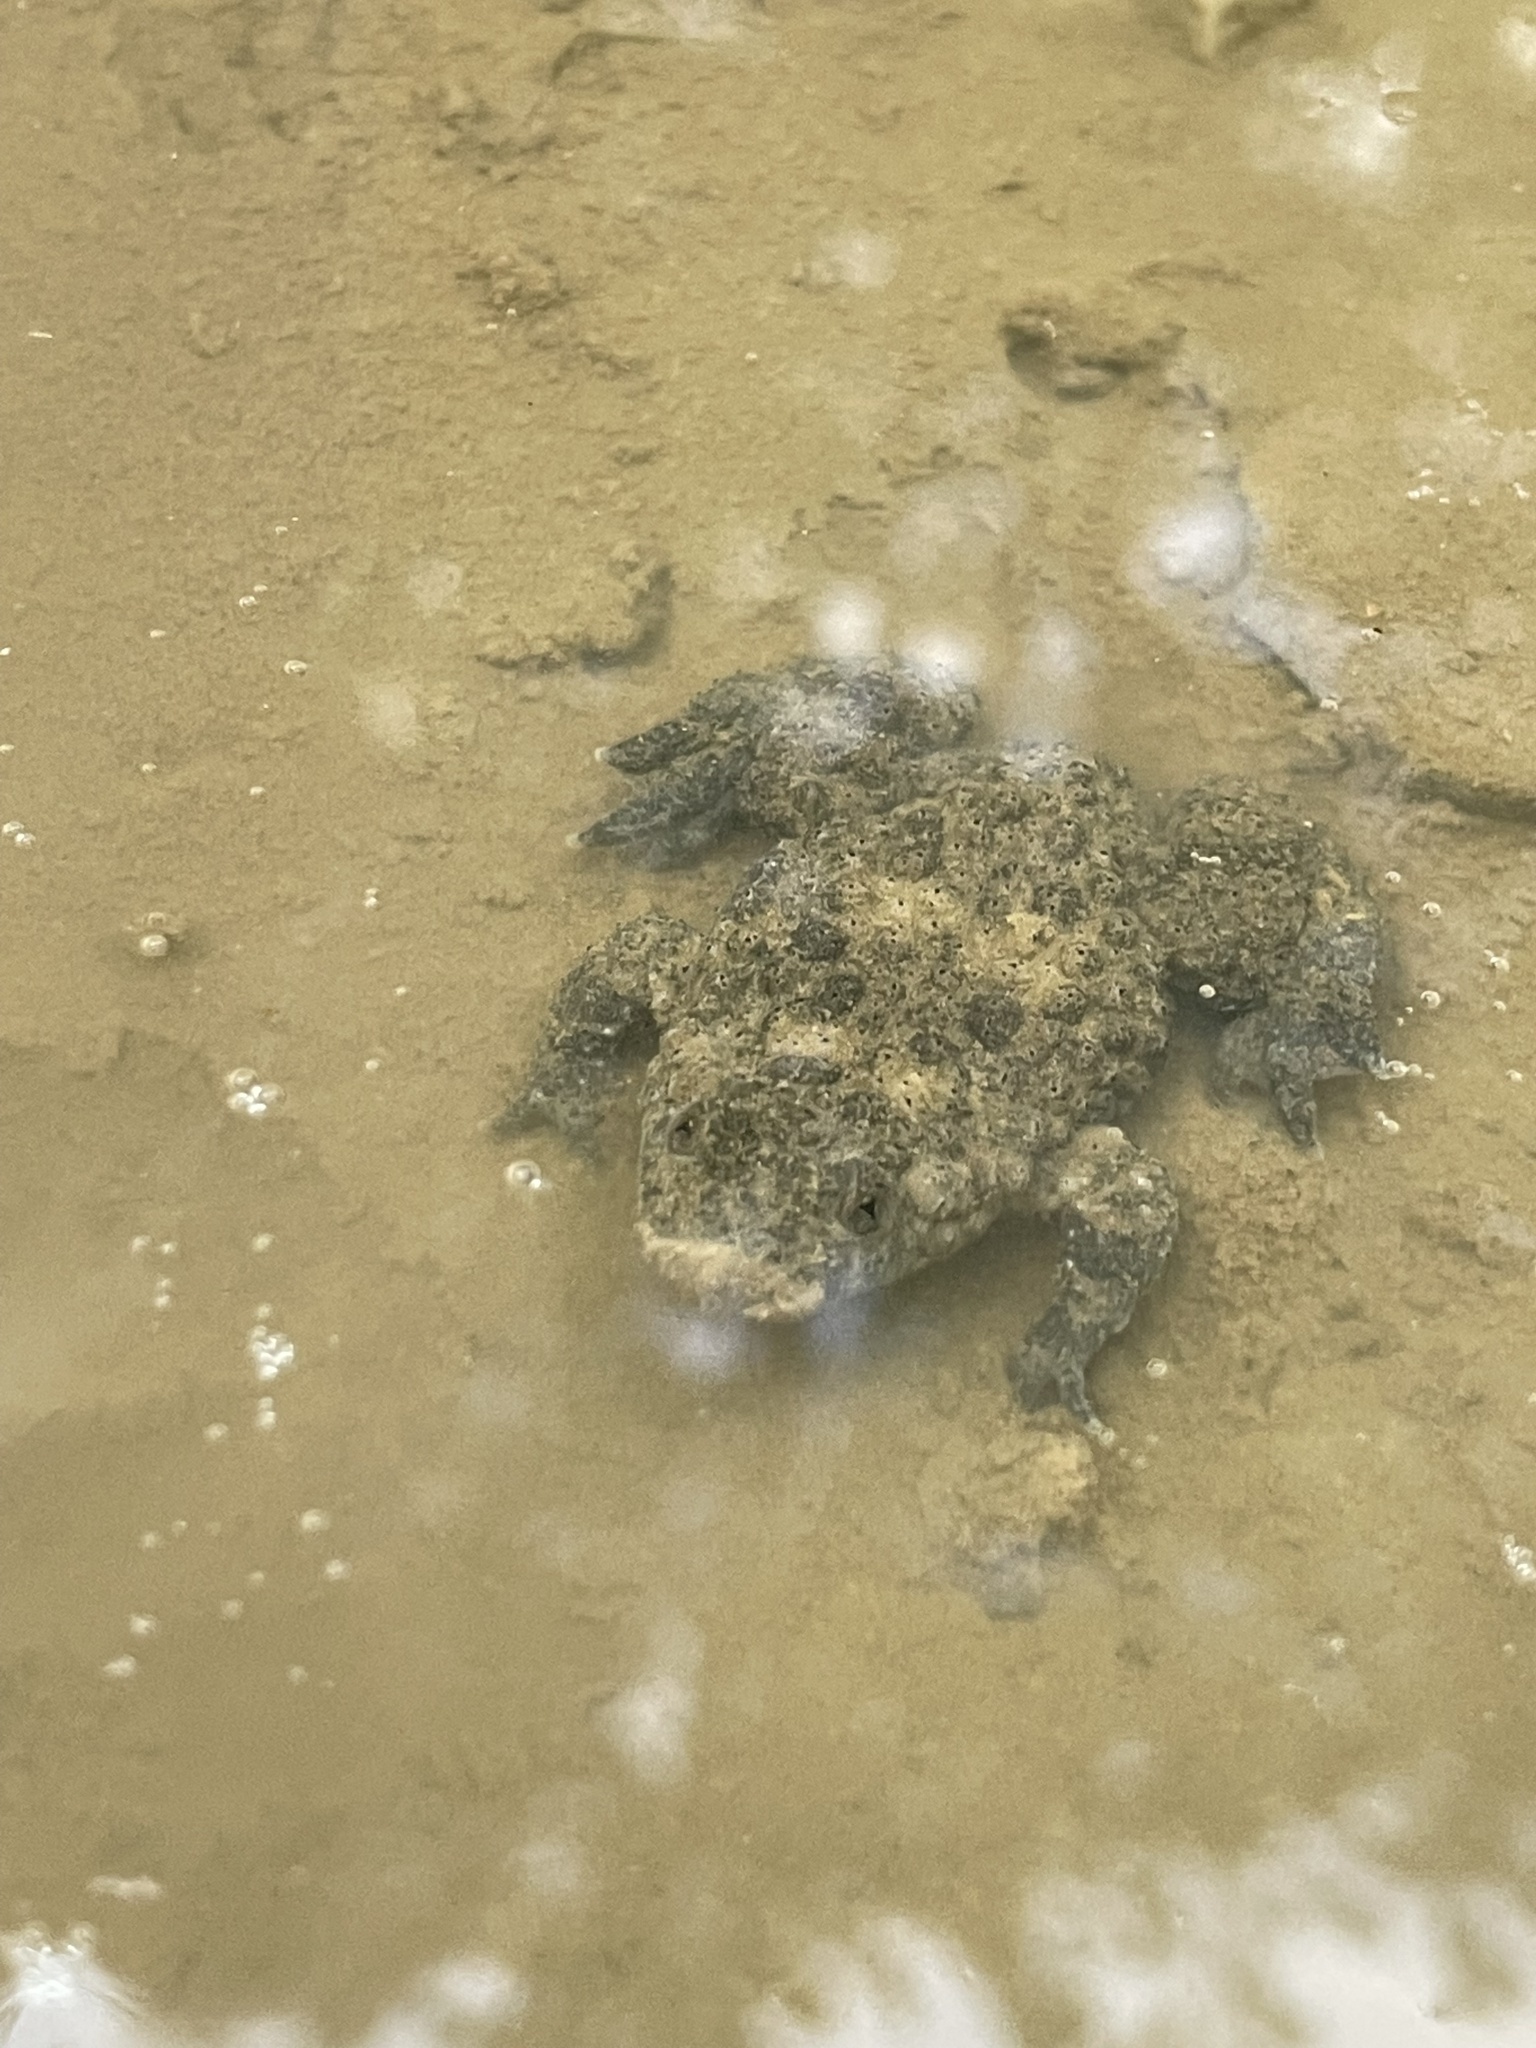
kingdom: Animalia
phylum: Chordata
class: Amphibia
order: Anura
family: Bombinatoridae
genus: Bombina
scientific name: Bombina variegata
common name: Yellow-bellied toad
